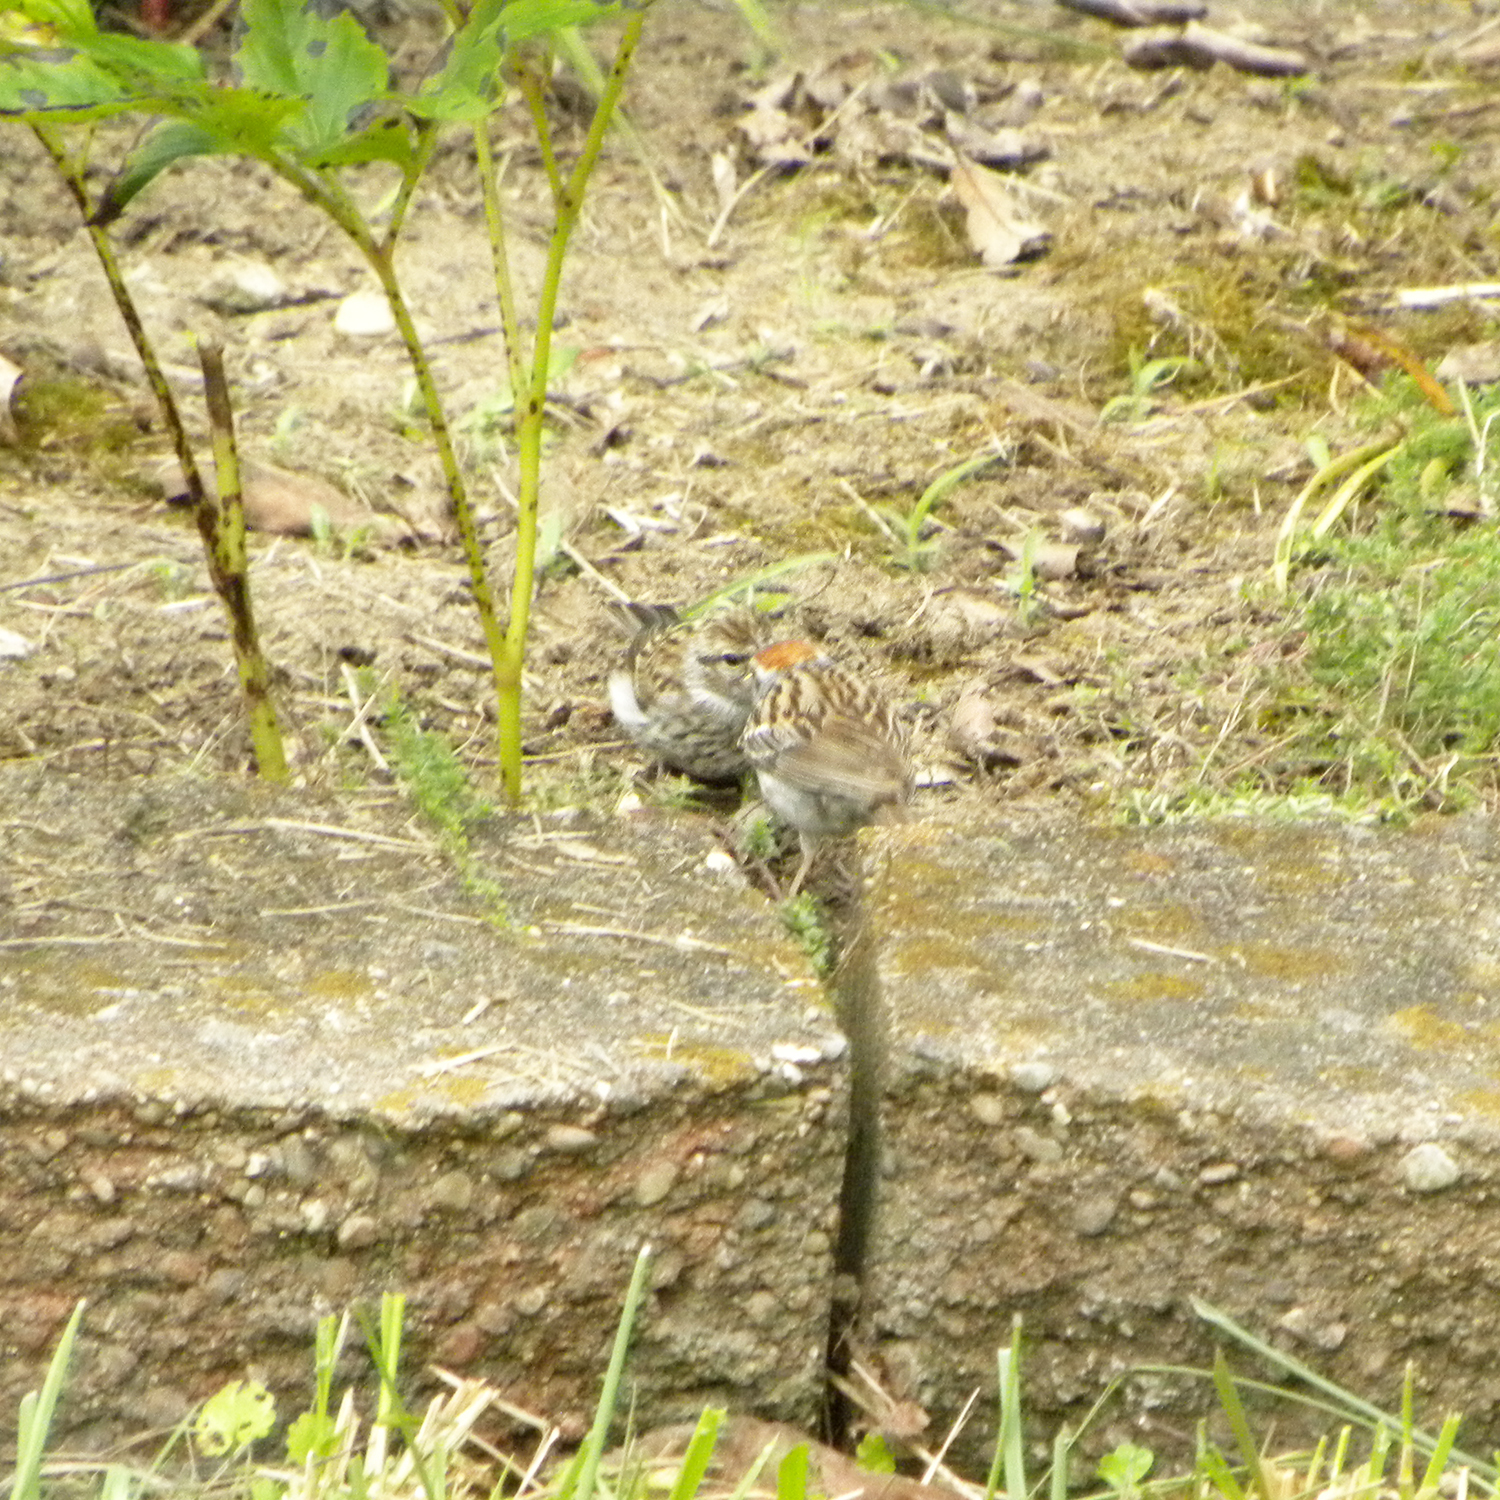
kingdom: Animalia
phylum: Chordata
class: Aves
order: Passeriformes
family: Passerellidae
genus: Spizella
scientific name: Spizella passerina
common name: Chipping sparrow
